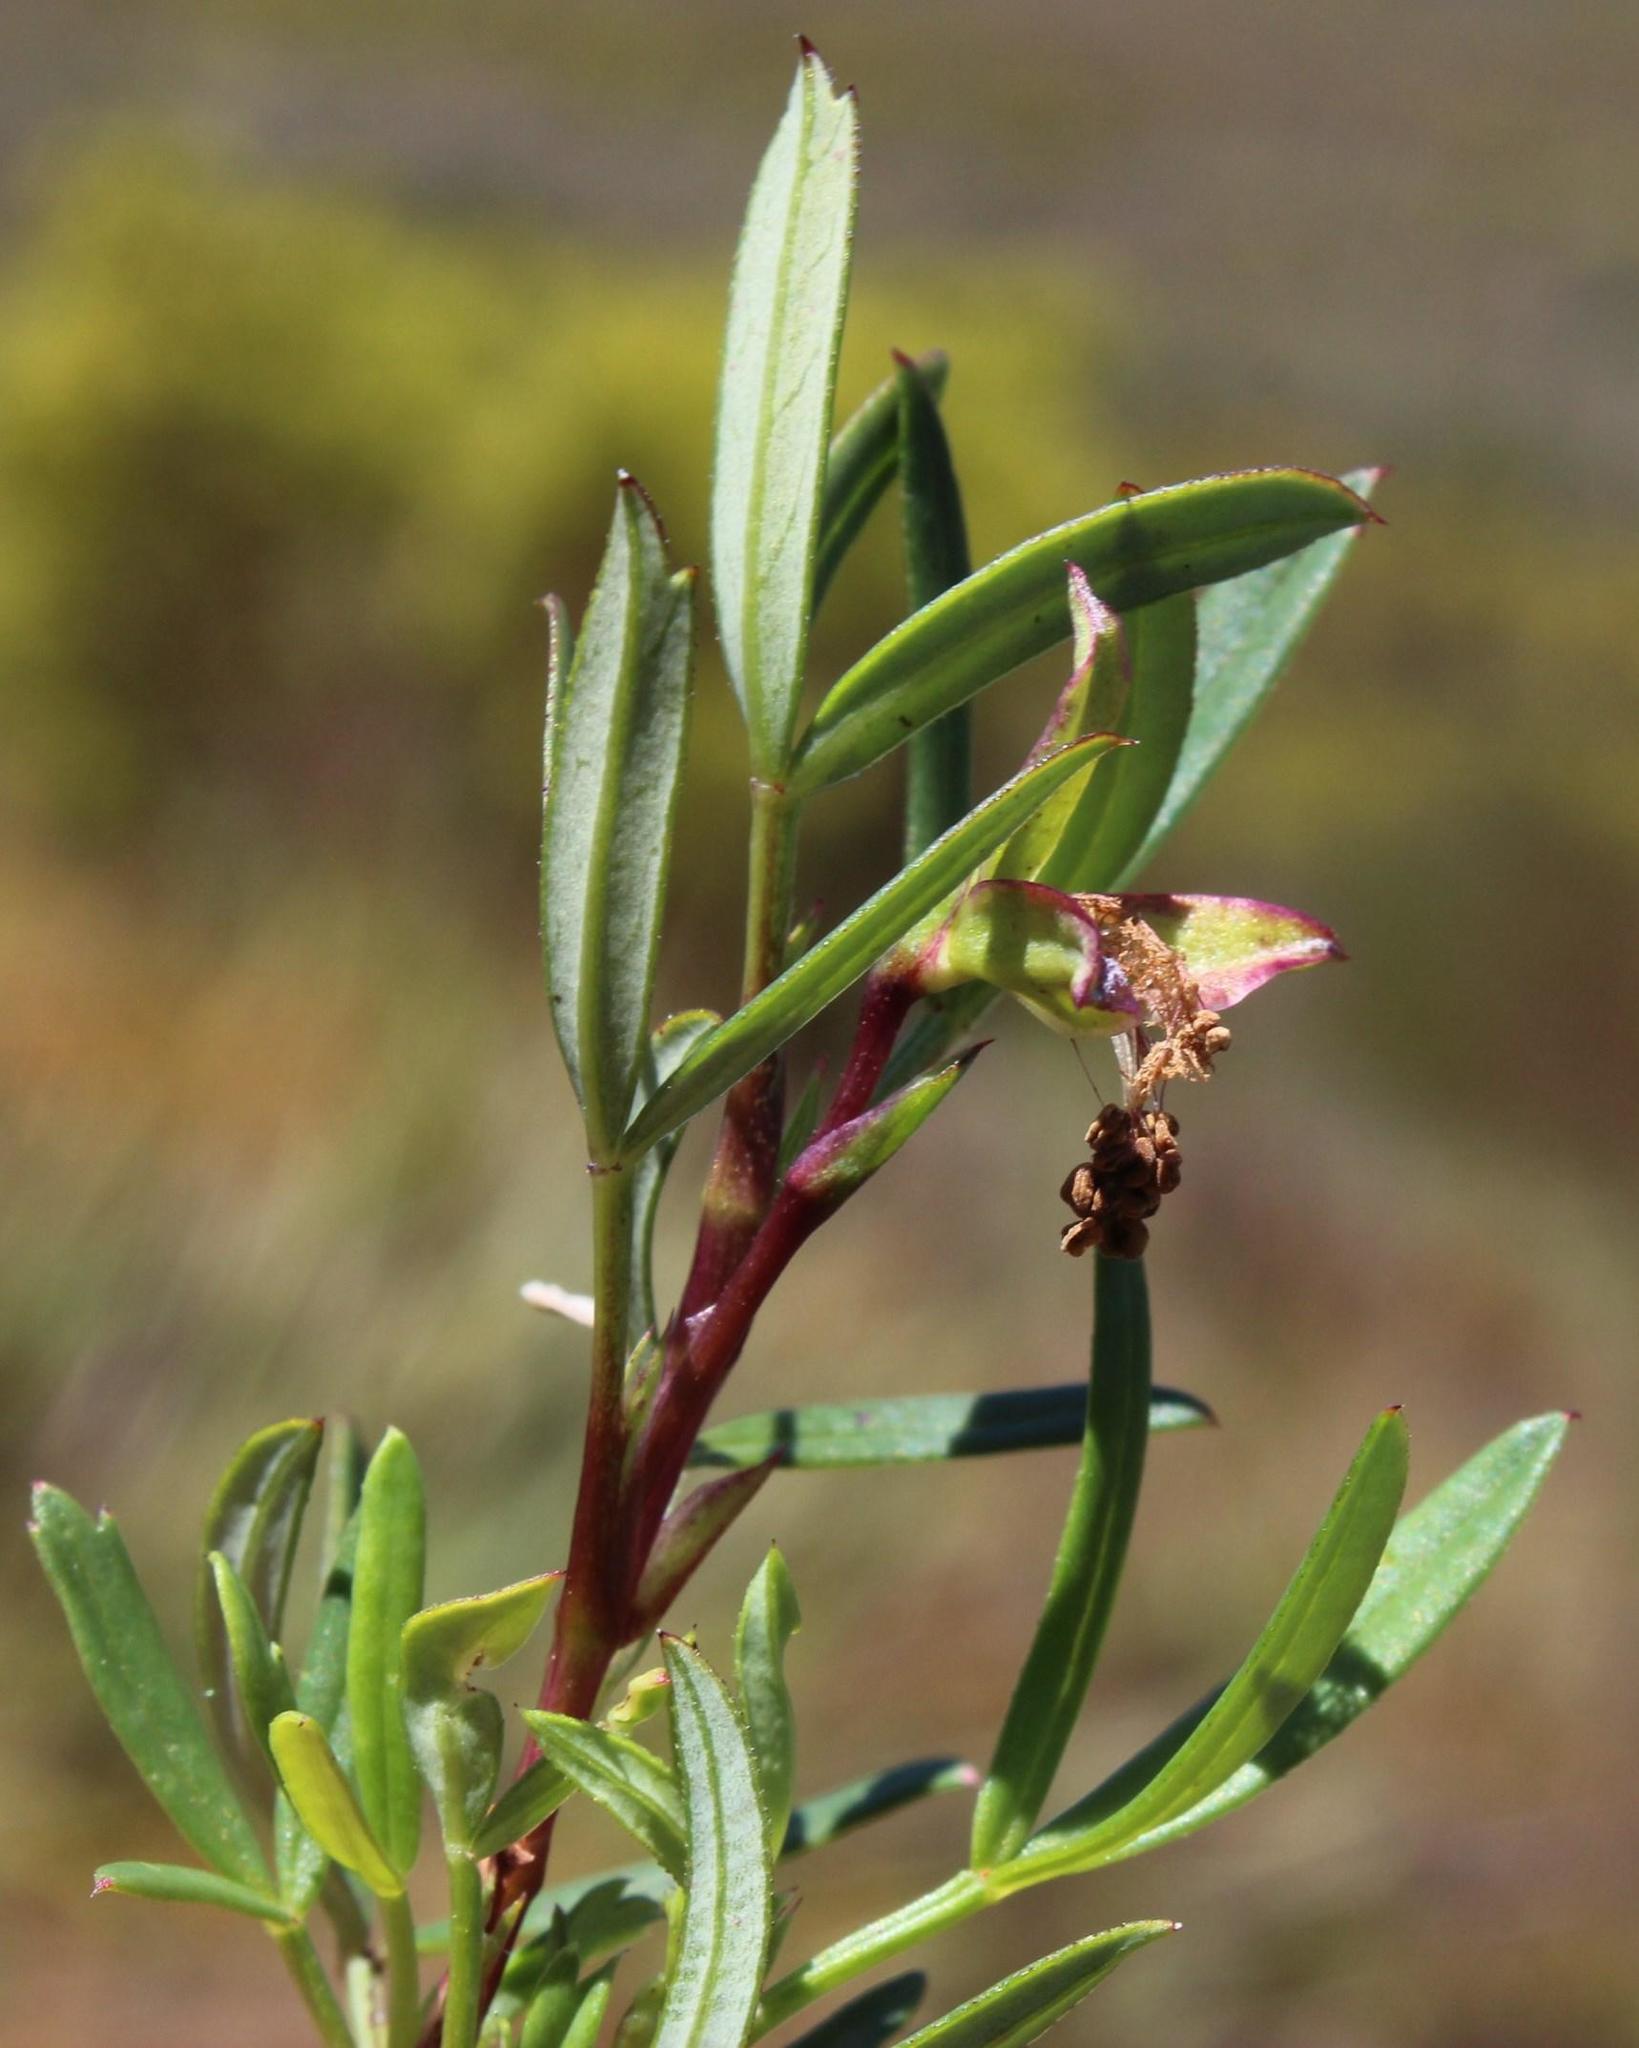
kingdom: Plantae
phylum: Tracheophyta
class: Magnoliopsida
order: Rosales
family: Rosaceae
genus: Cliffortia
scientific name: Cliffortia pedunculata
